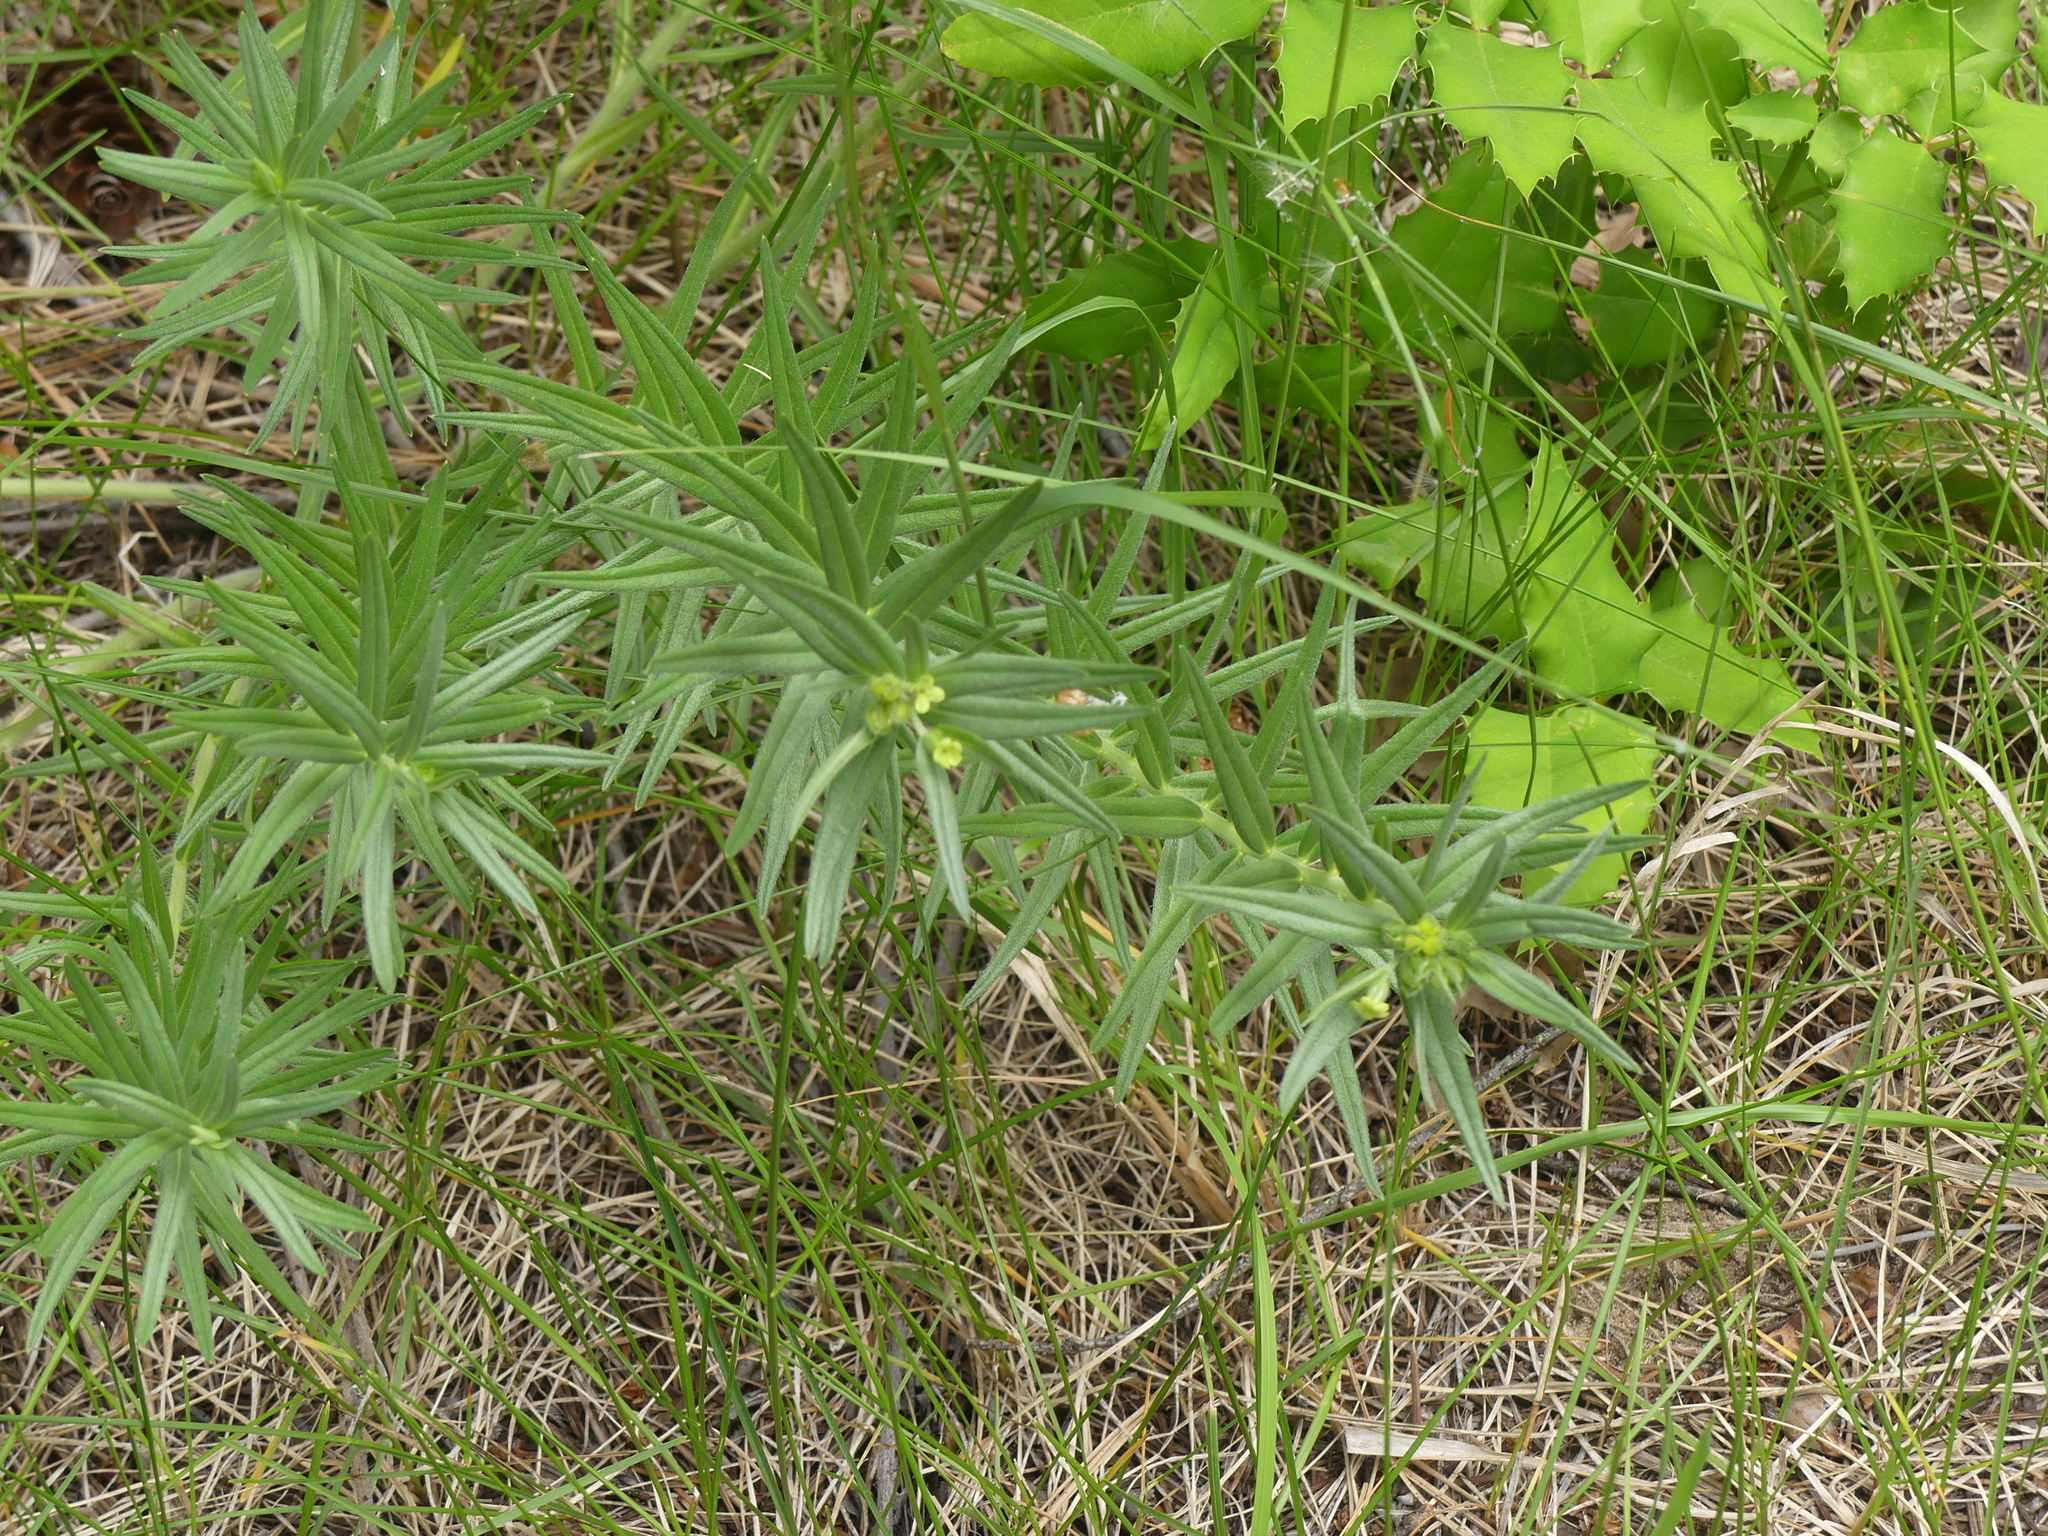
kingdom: Plantae
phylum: Tracheophyta
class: Magnoliopsida
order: Boraginales
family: Boraginaceae
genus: Lithospermum
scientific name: Lithospermum ruderale
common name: Western gromwell
